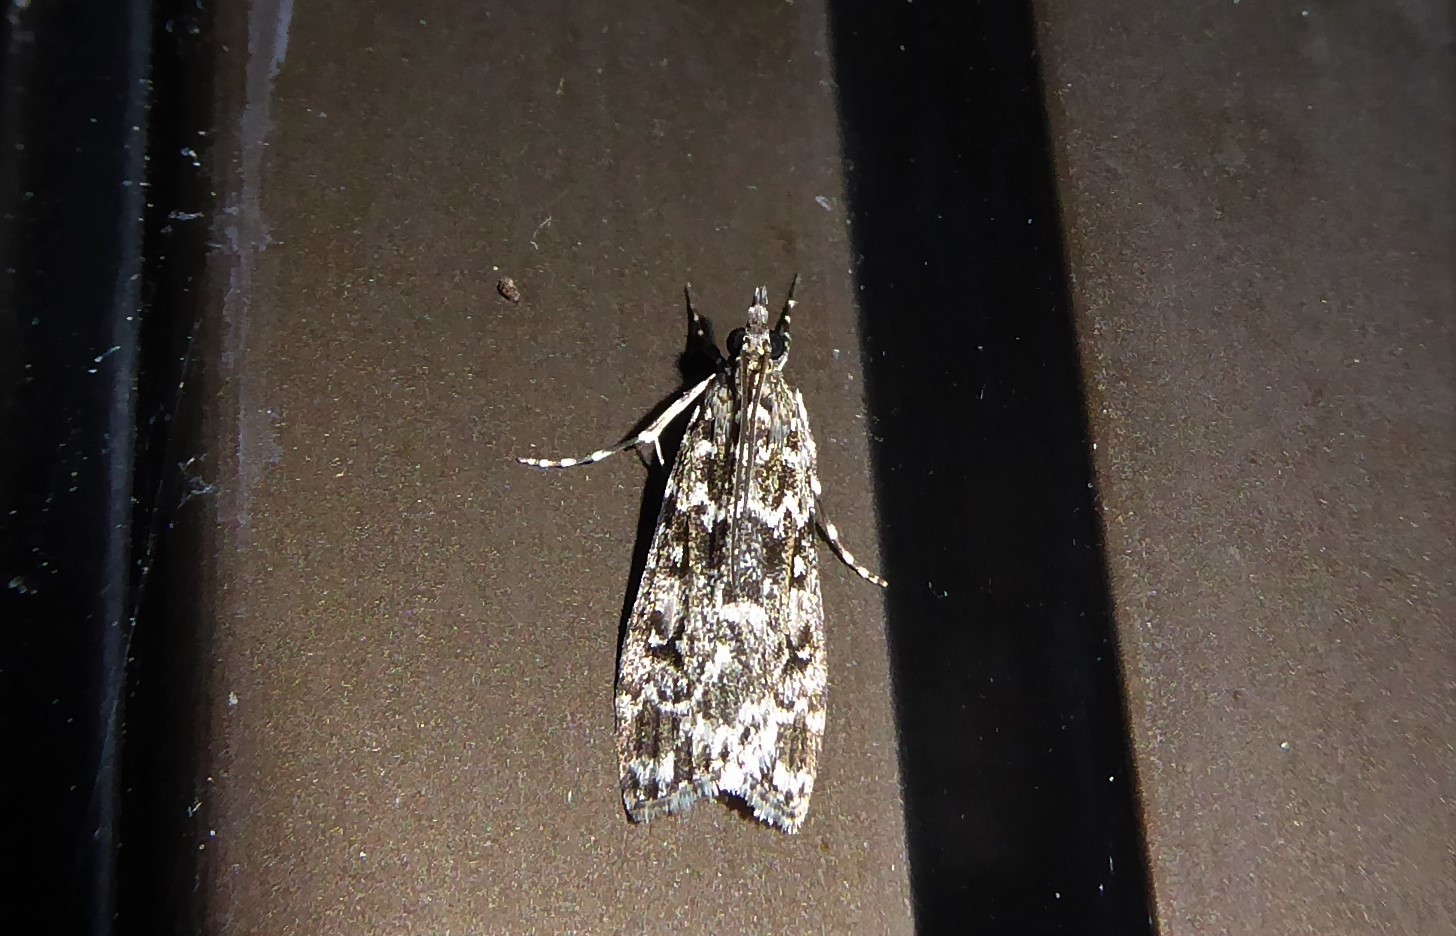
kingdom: Animalia
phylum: Arthropoda
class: Insecta
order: Lepidoptera
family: Crambidae
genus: Eudonia
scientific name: Eudonia philerga
